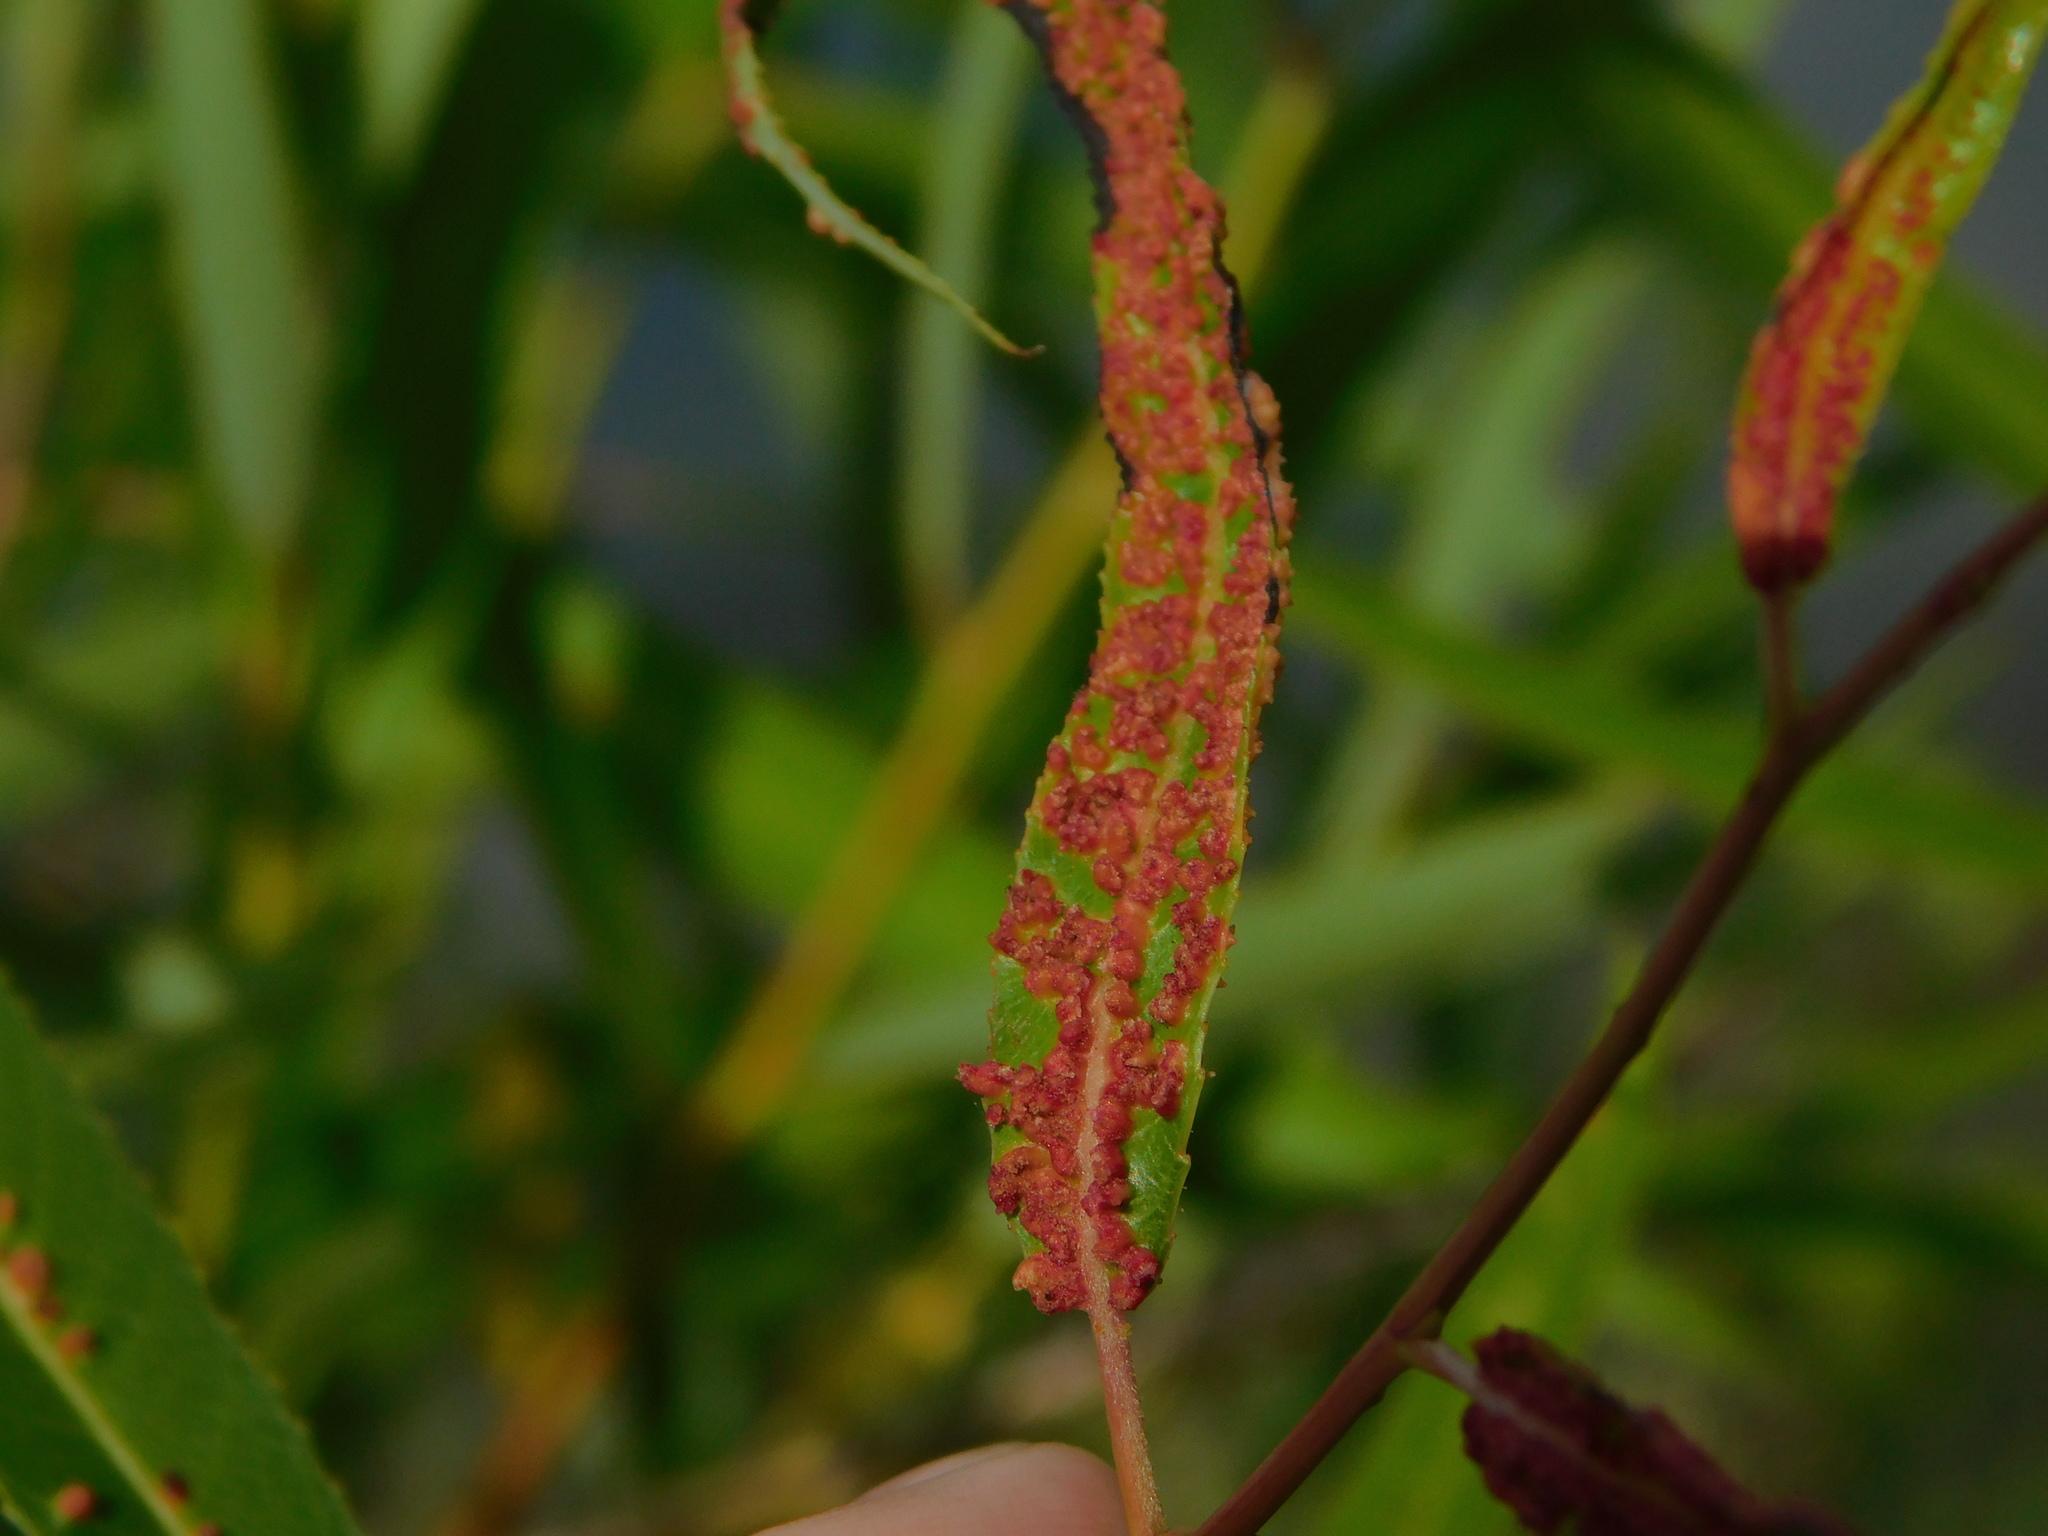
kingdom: Animalia
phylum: Arthropoda
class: Arachnida
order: Trombidiformes
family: Eriophyidae
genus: Aculus
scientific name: Aculus tetanothrix
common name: Willow bead gall mite
